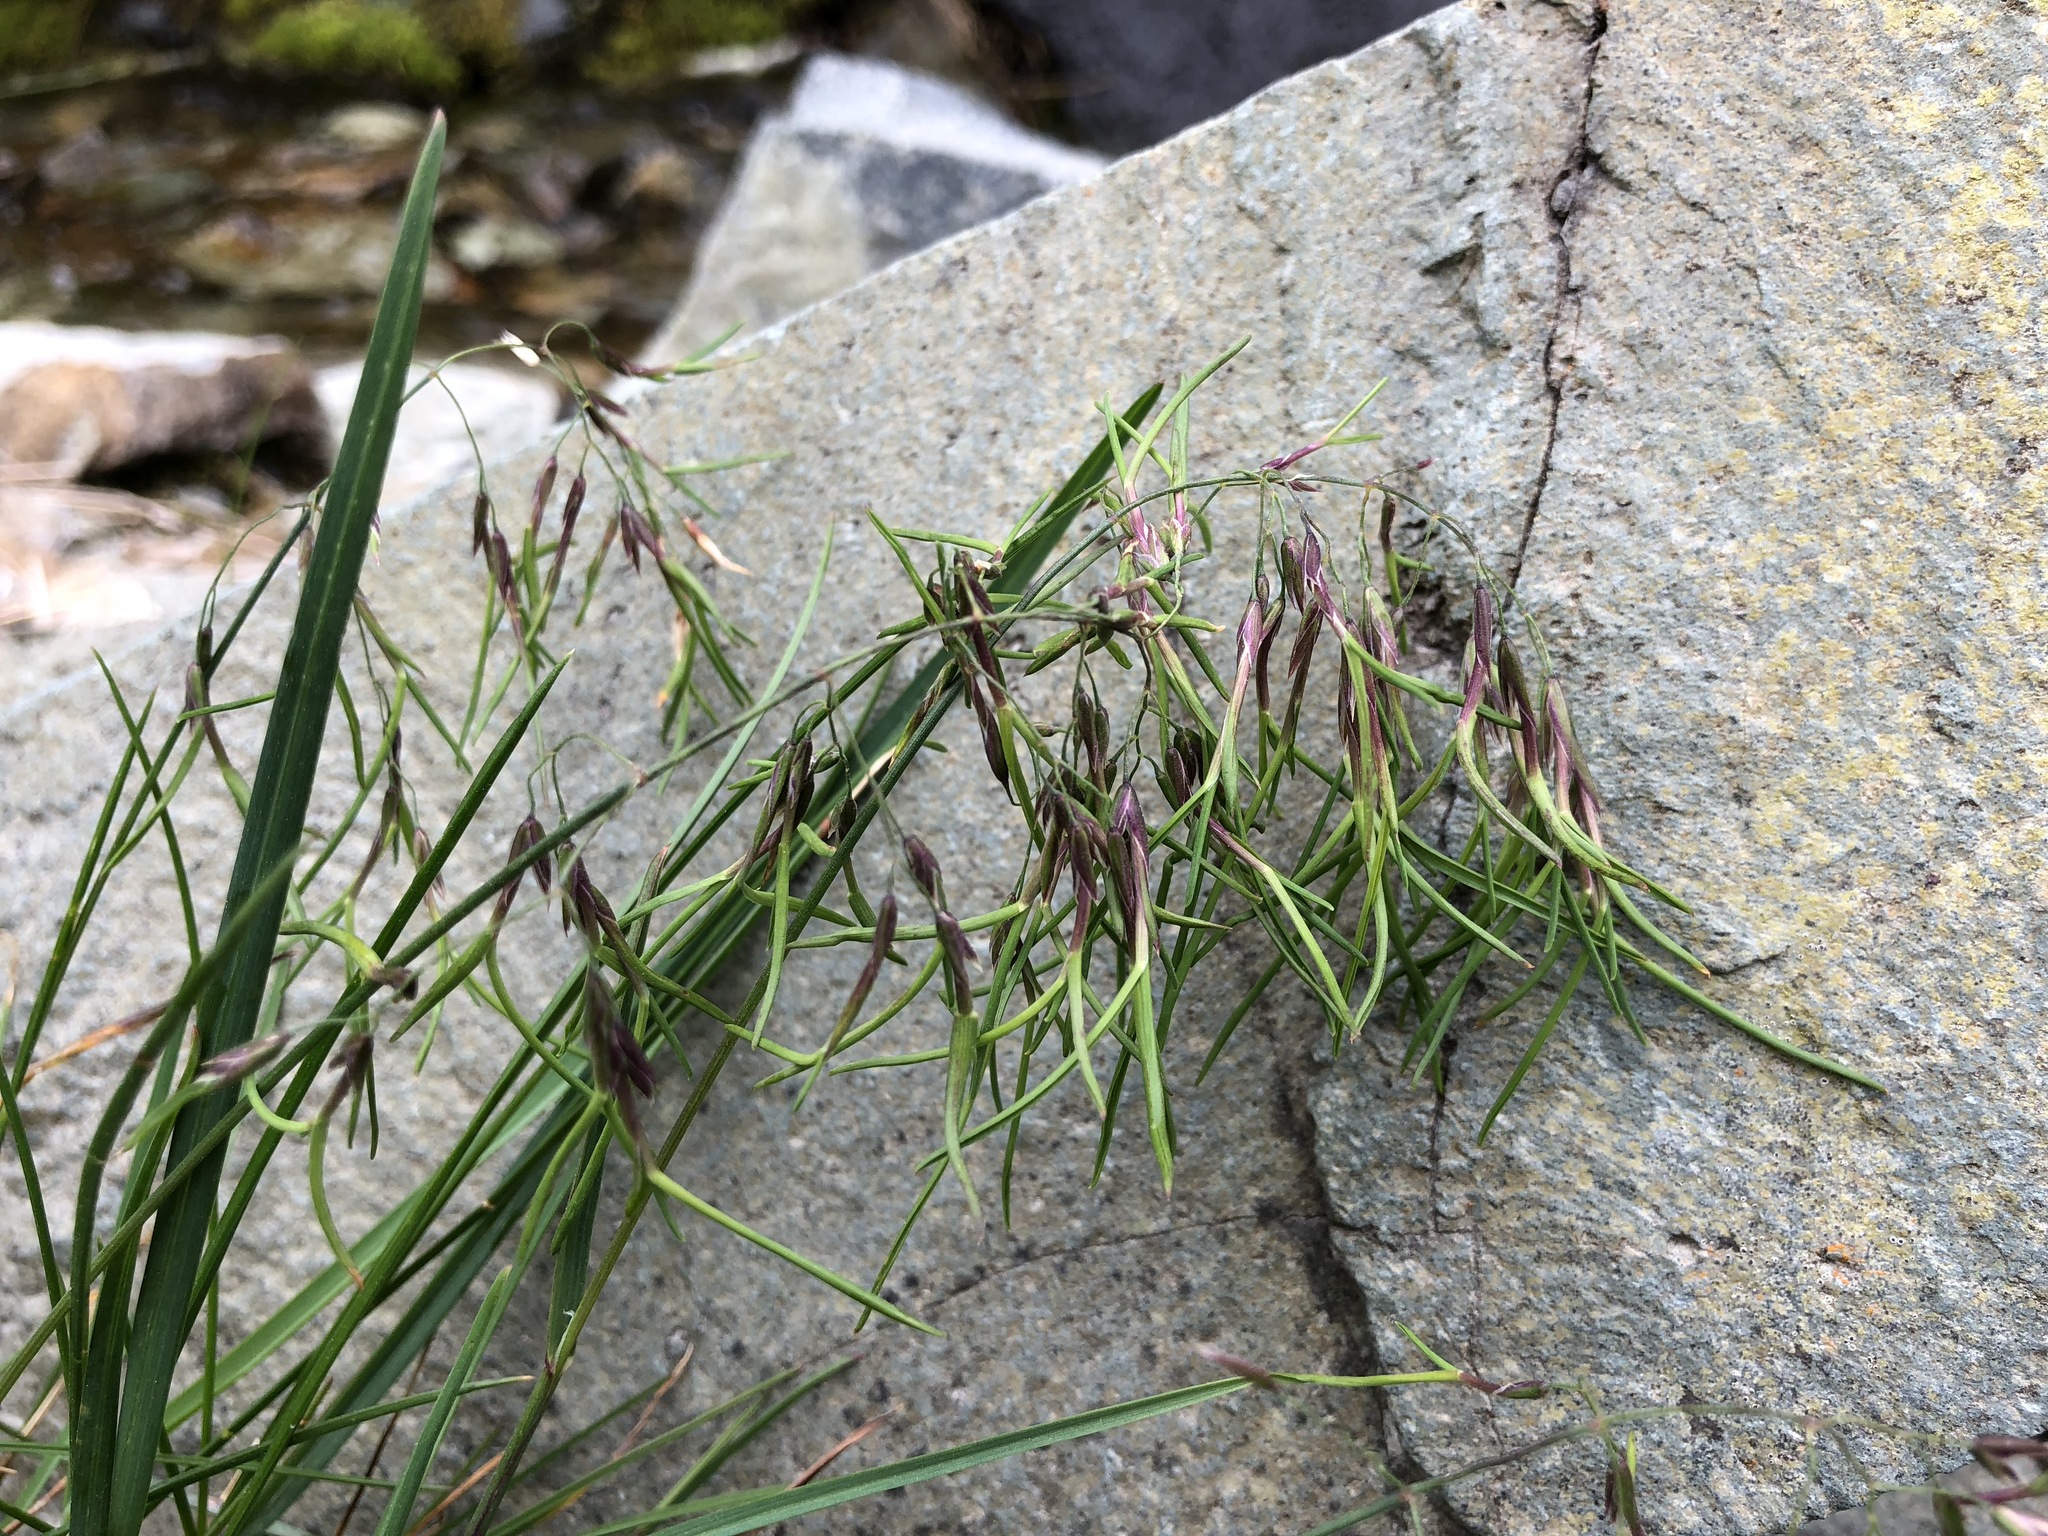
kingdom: Plantae
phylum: Tracheophyta
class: Liliopsida
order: Poales
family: Poaceae
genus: Poa
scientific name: Poa alpina
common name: Alpine bluegrass
